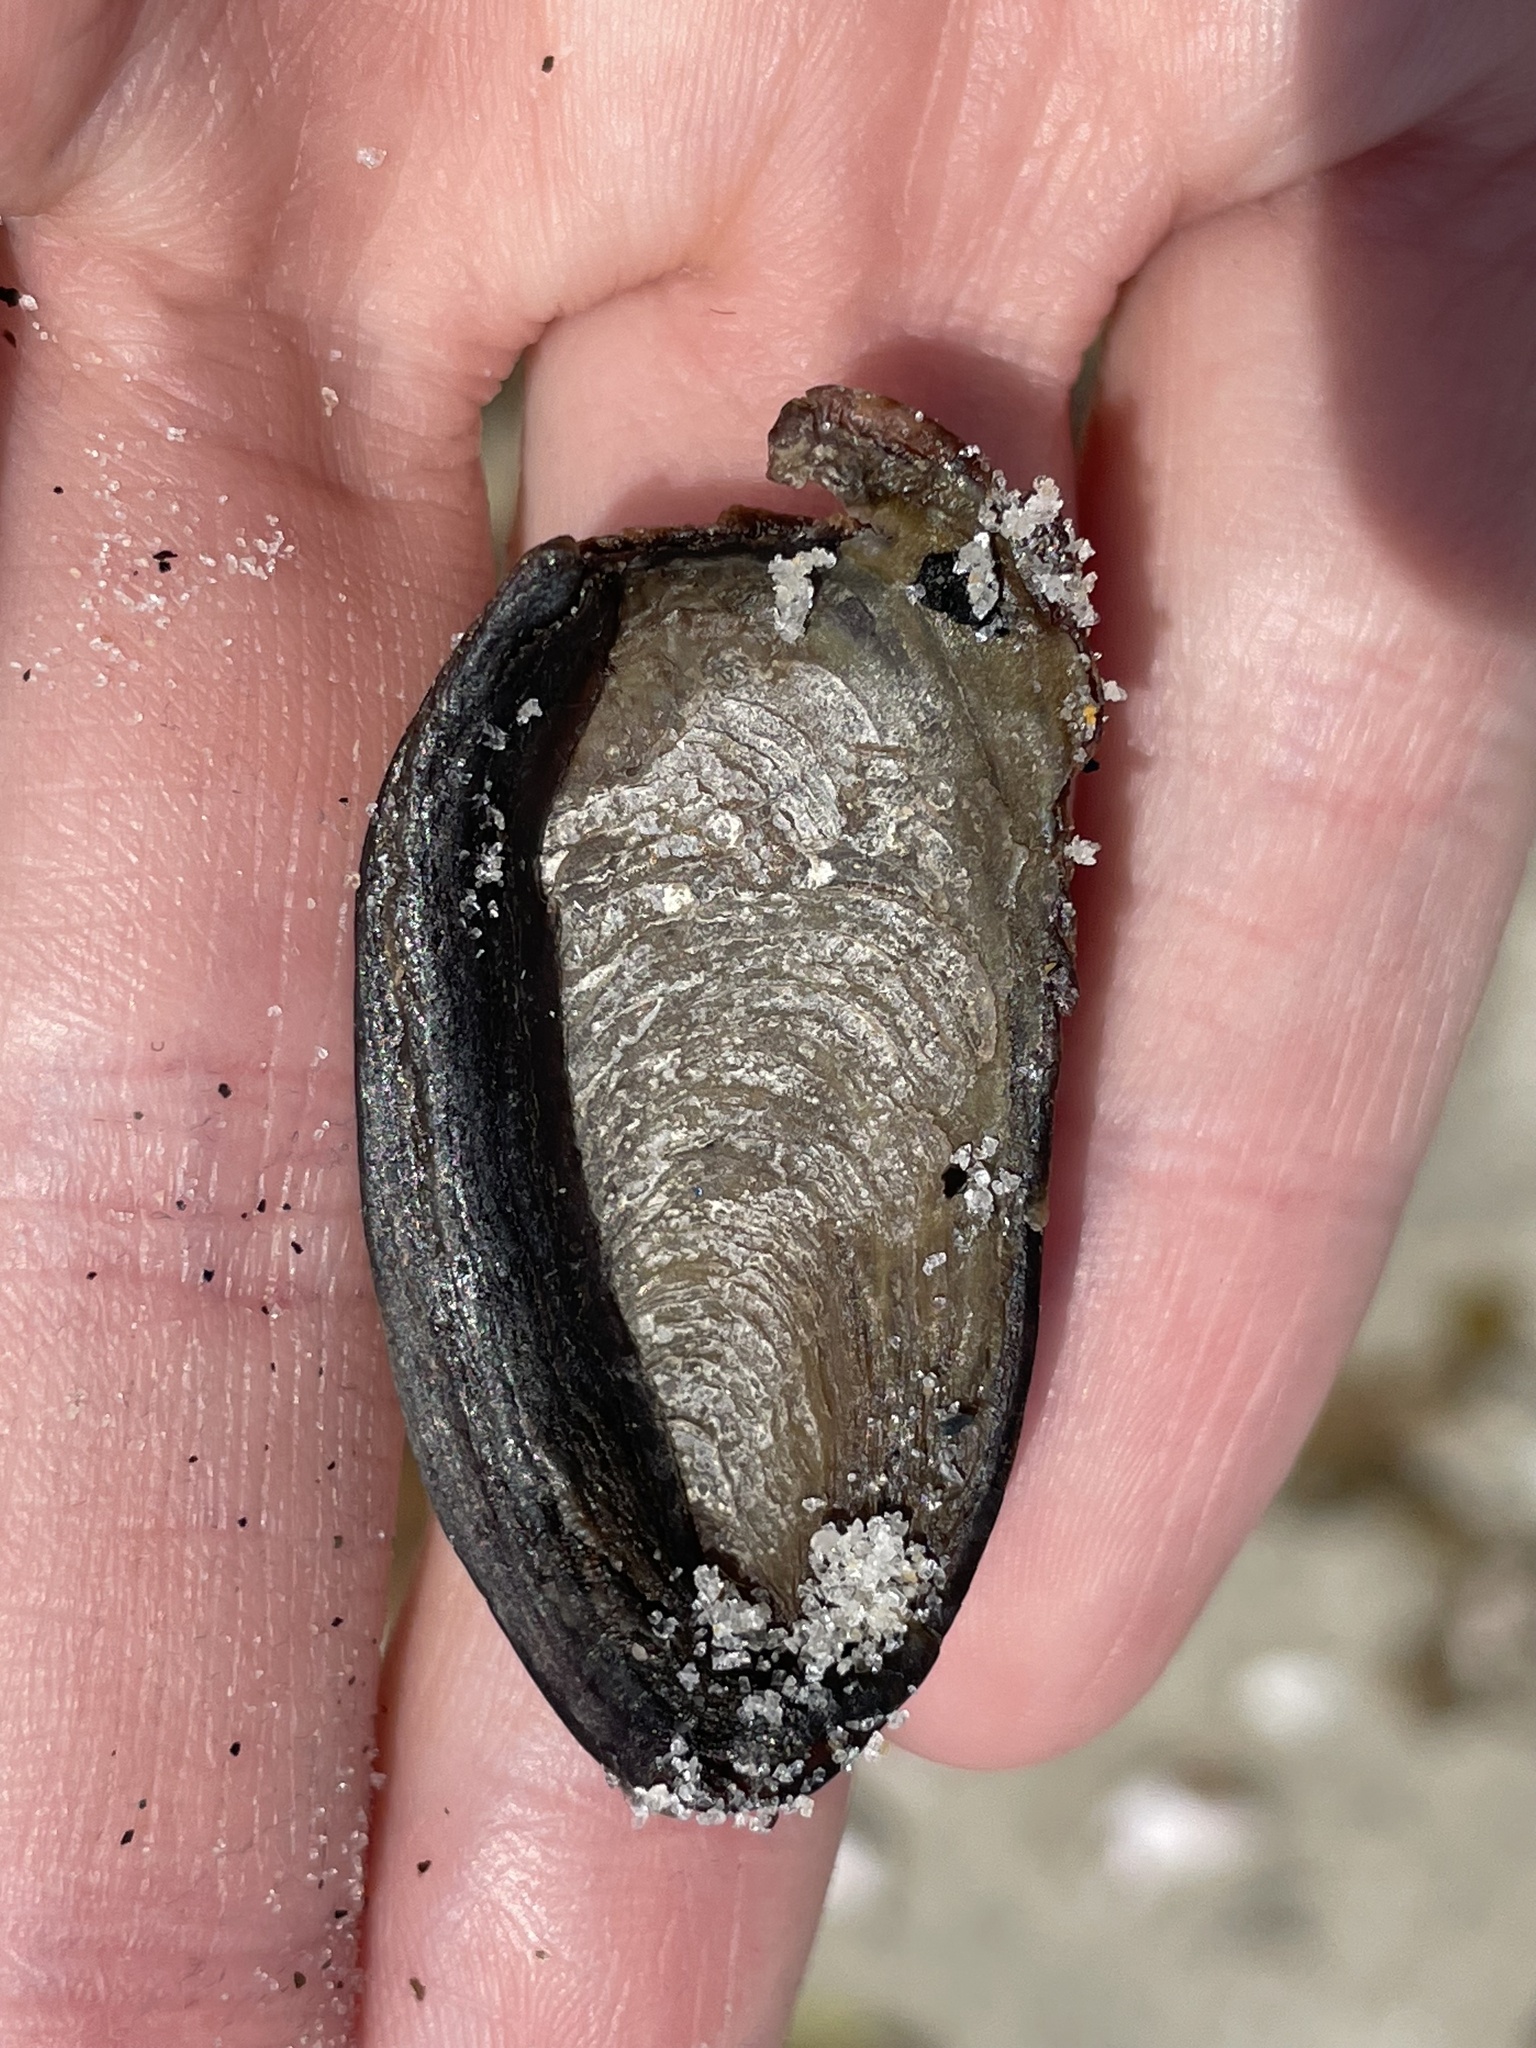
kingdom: Animalia
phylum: Mollusca
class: Gastropoda
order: Neogastropoda
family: Busyconidae
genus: Busycotypus
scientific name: Busycotypus canaliculatus
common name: Channeled whelk
